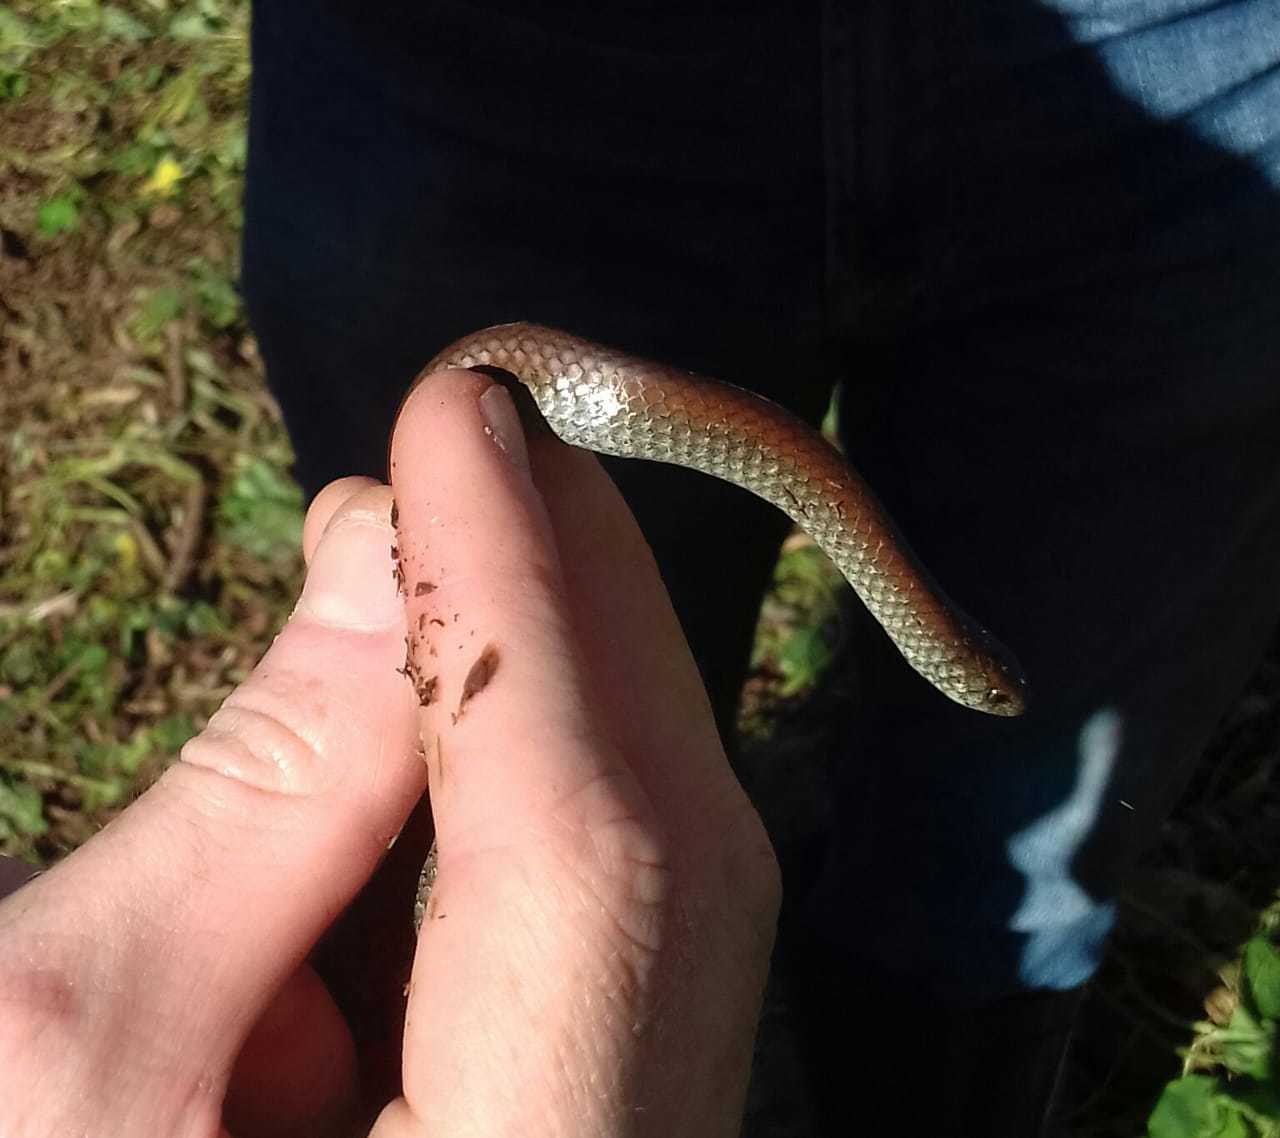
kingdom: Animalia
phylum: Chordata
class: Squamata
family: Pseudoxyrhophiidae
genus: Duberria
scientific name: Duberria lutrix
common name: Common slug eater
